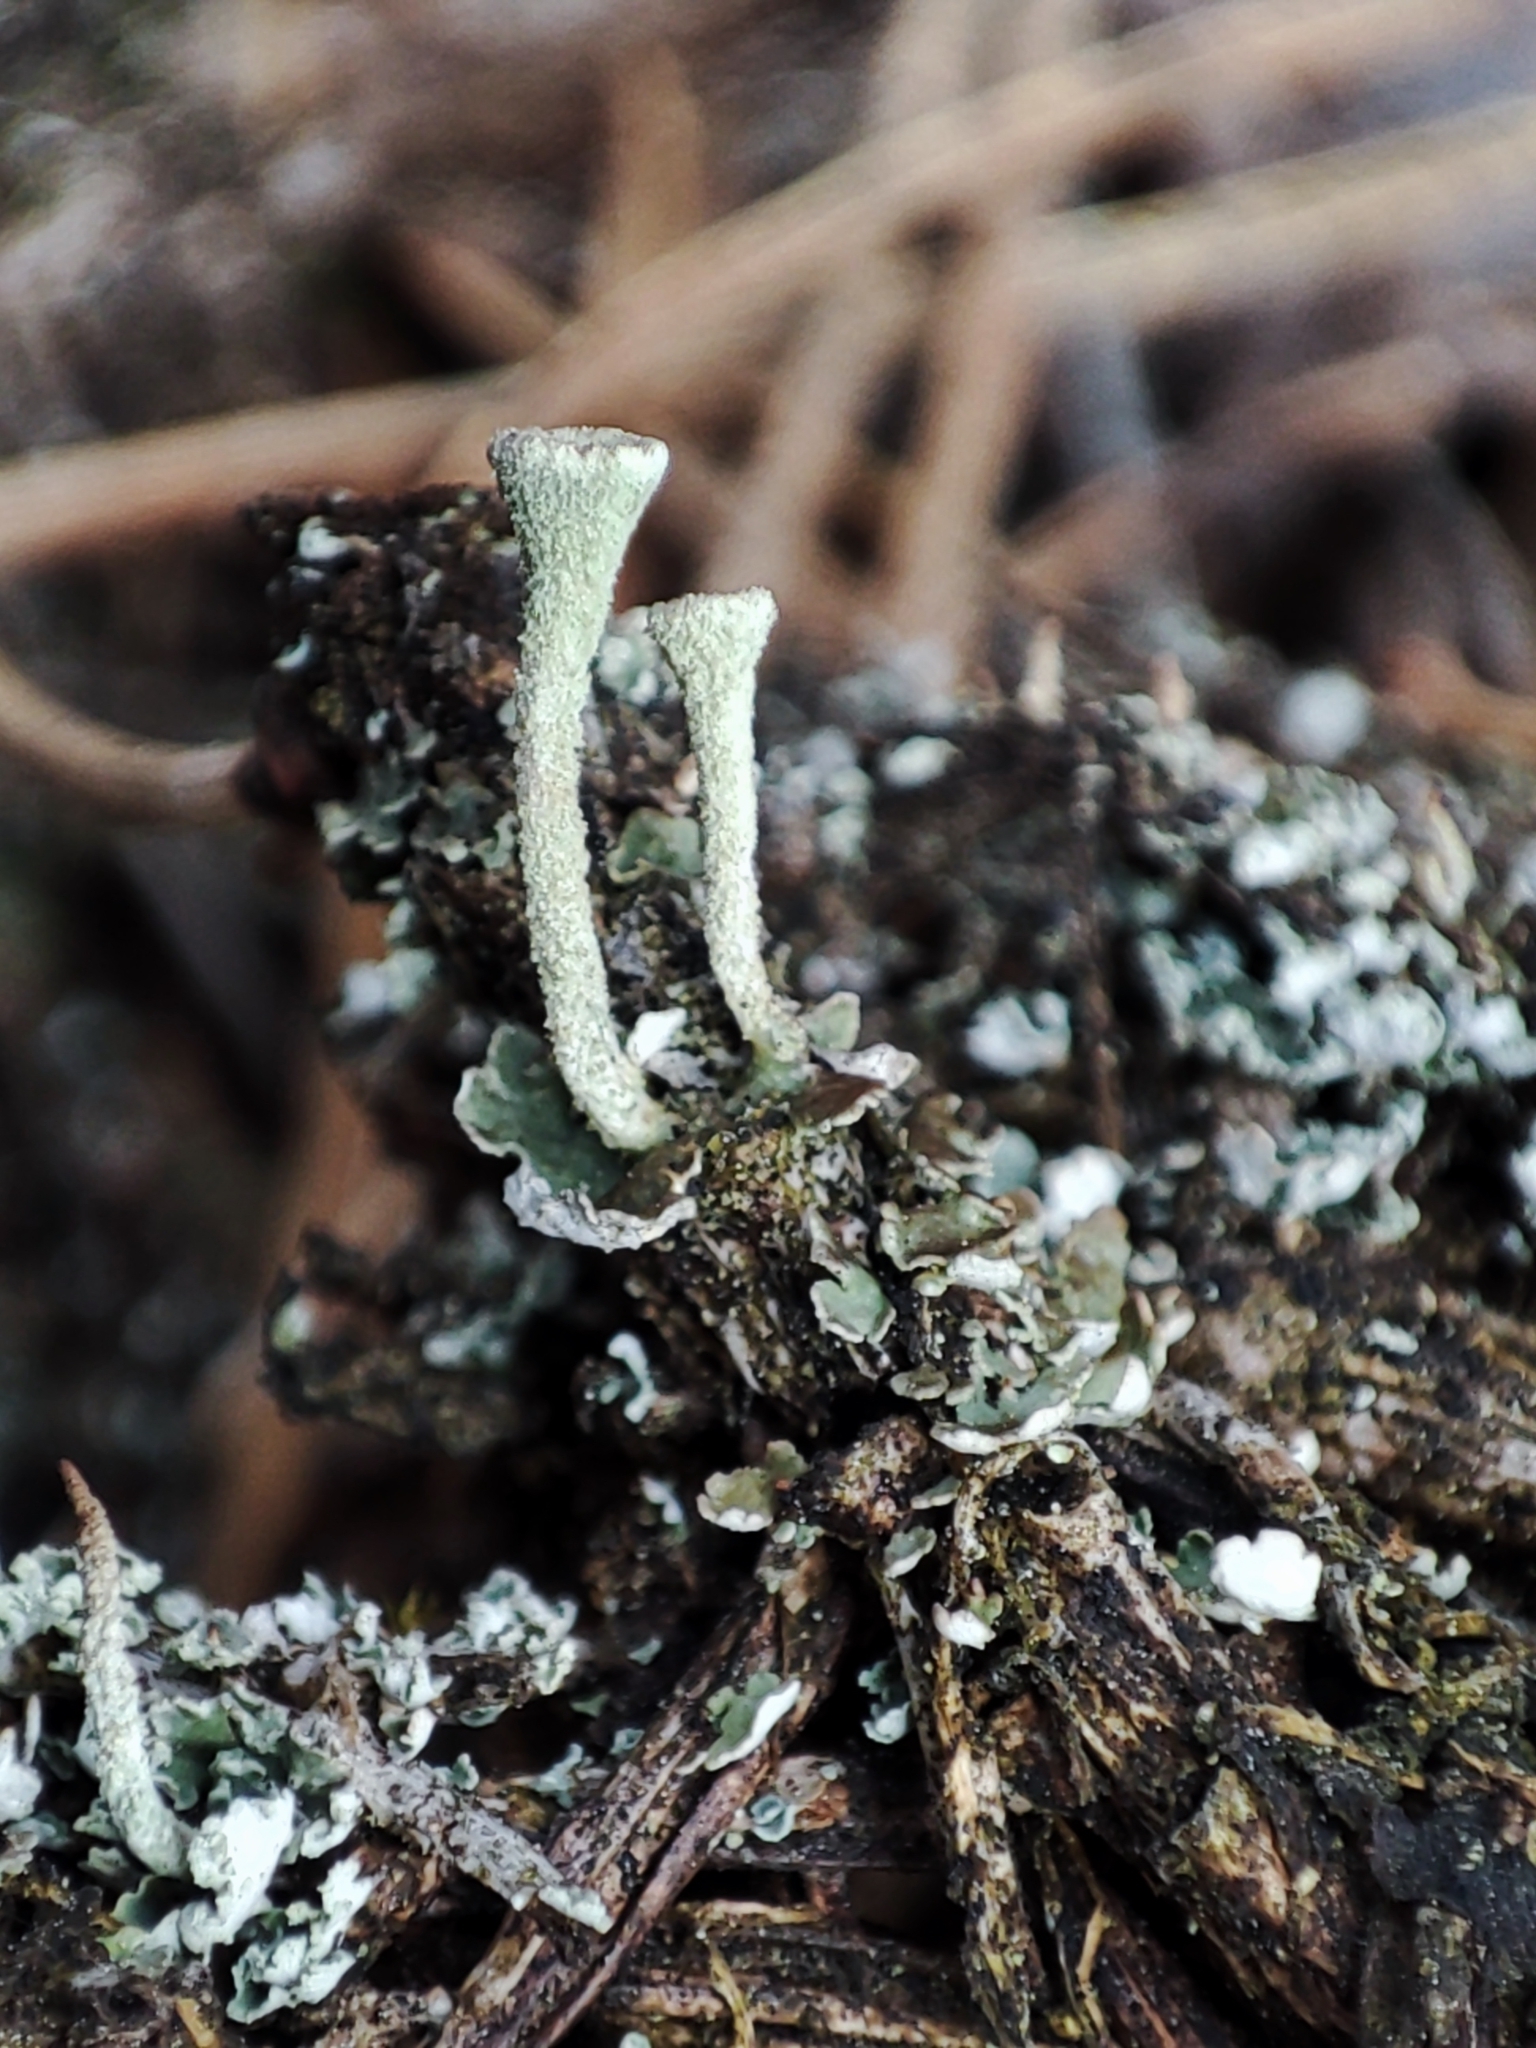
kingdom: Fungi
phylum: Ascomycota
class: Lecanoromycetes
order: Lecanorales
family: Cladoniaceae
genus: Cladonia
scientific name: Cladonia fimbriata
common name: Powdered trumpet lichen
